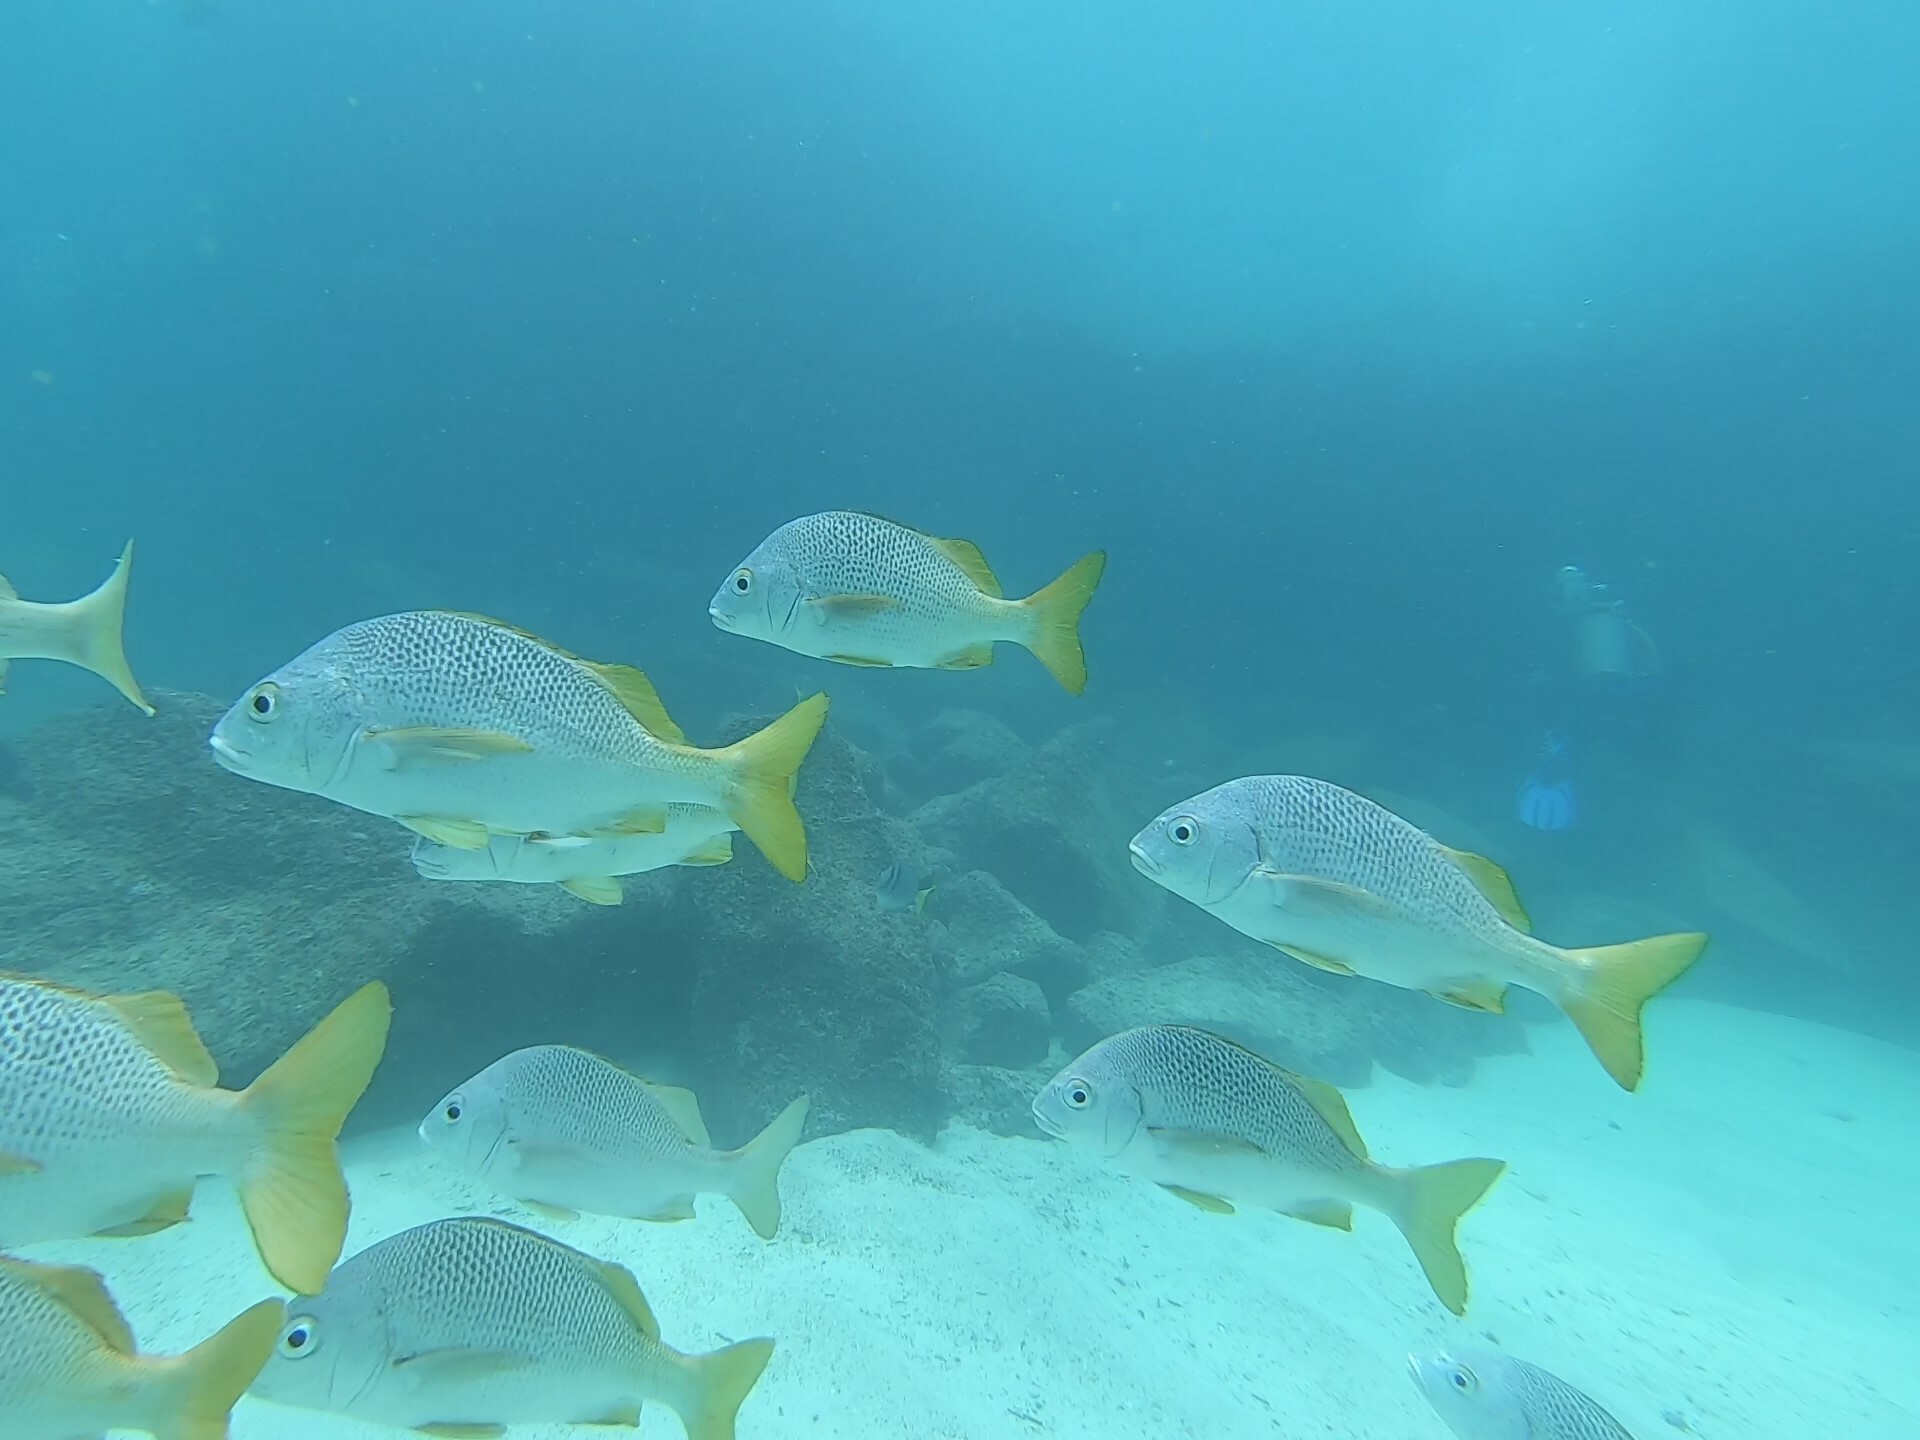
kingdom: Animalia
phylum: Chordata
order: Perciformes
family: Haemulidae
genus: Anisotremus
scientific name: Anisotremus espinozai
